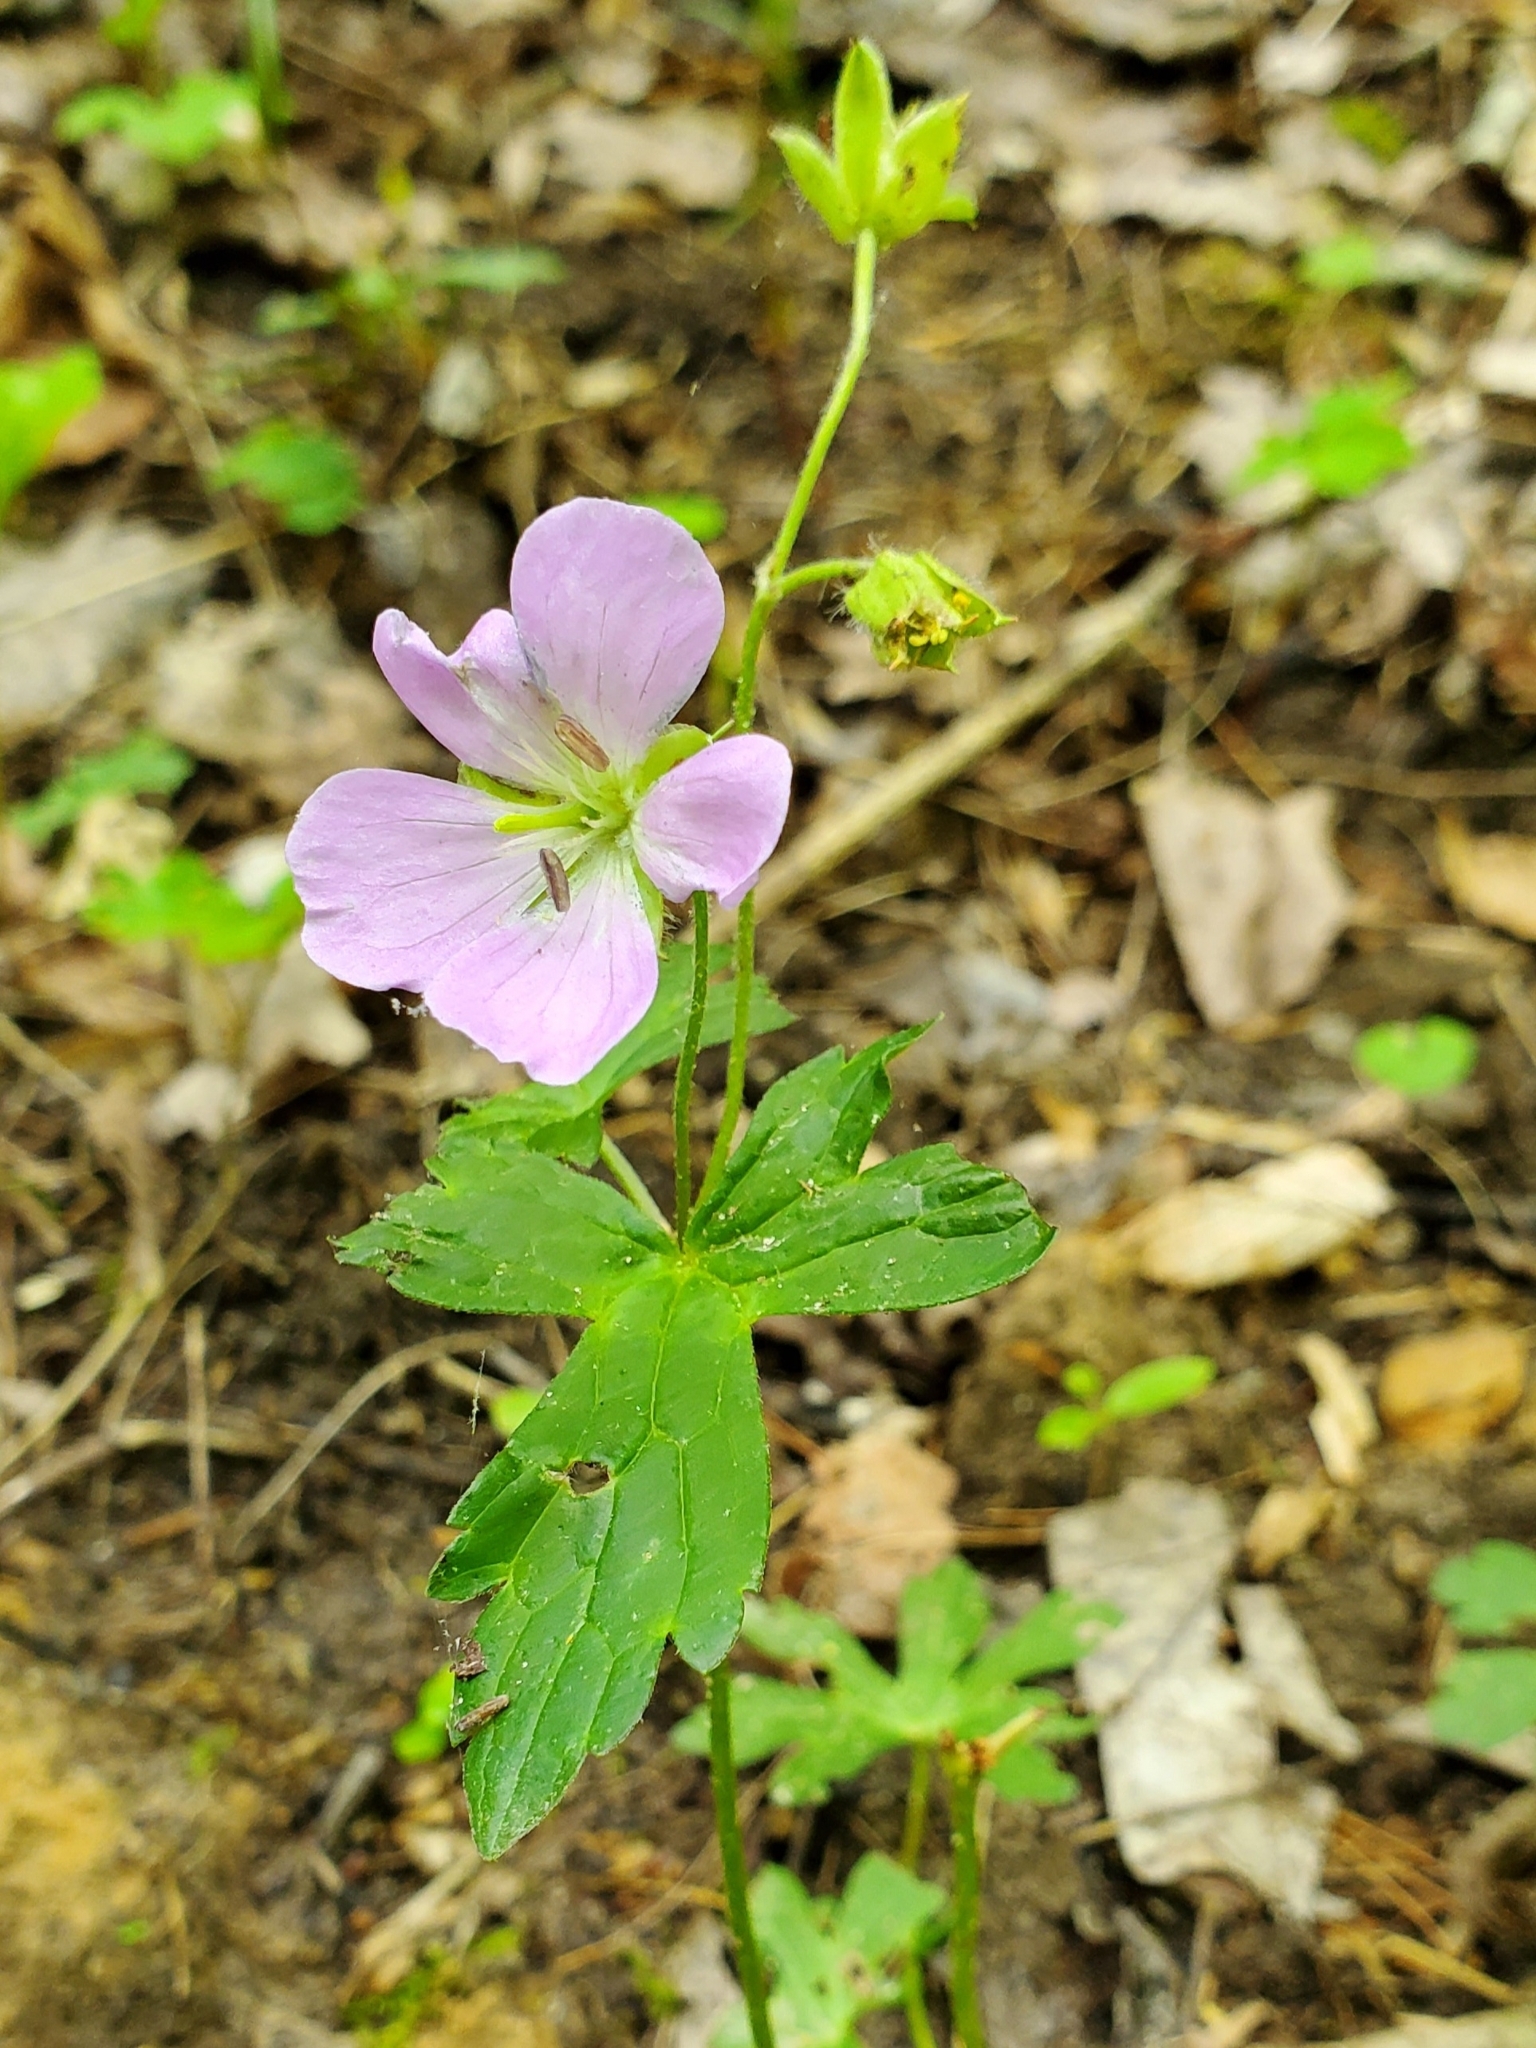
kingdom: Plantae
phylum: Tracheophyta
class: Magnoliopsida
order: Geraniales
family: Geraniaceae
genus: Geranium
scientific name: Geranium maculatum
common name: Spotted geranium
